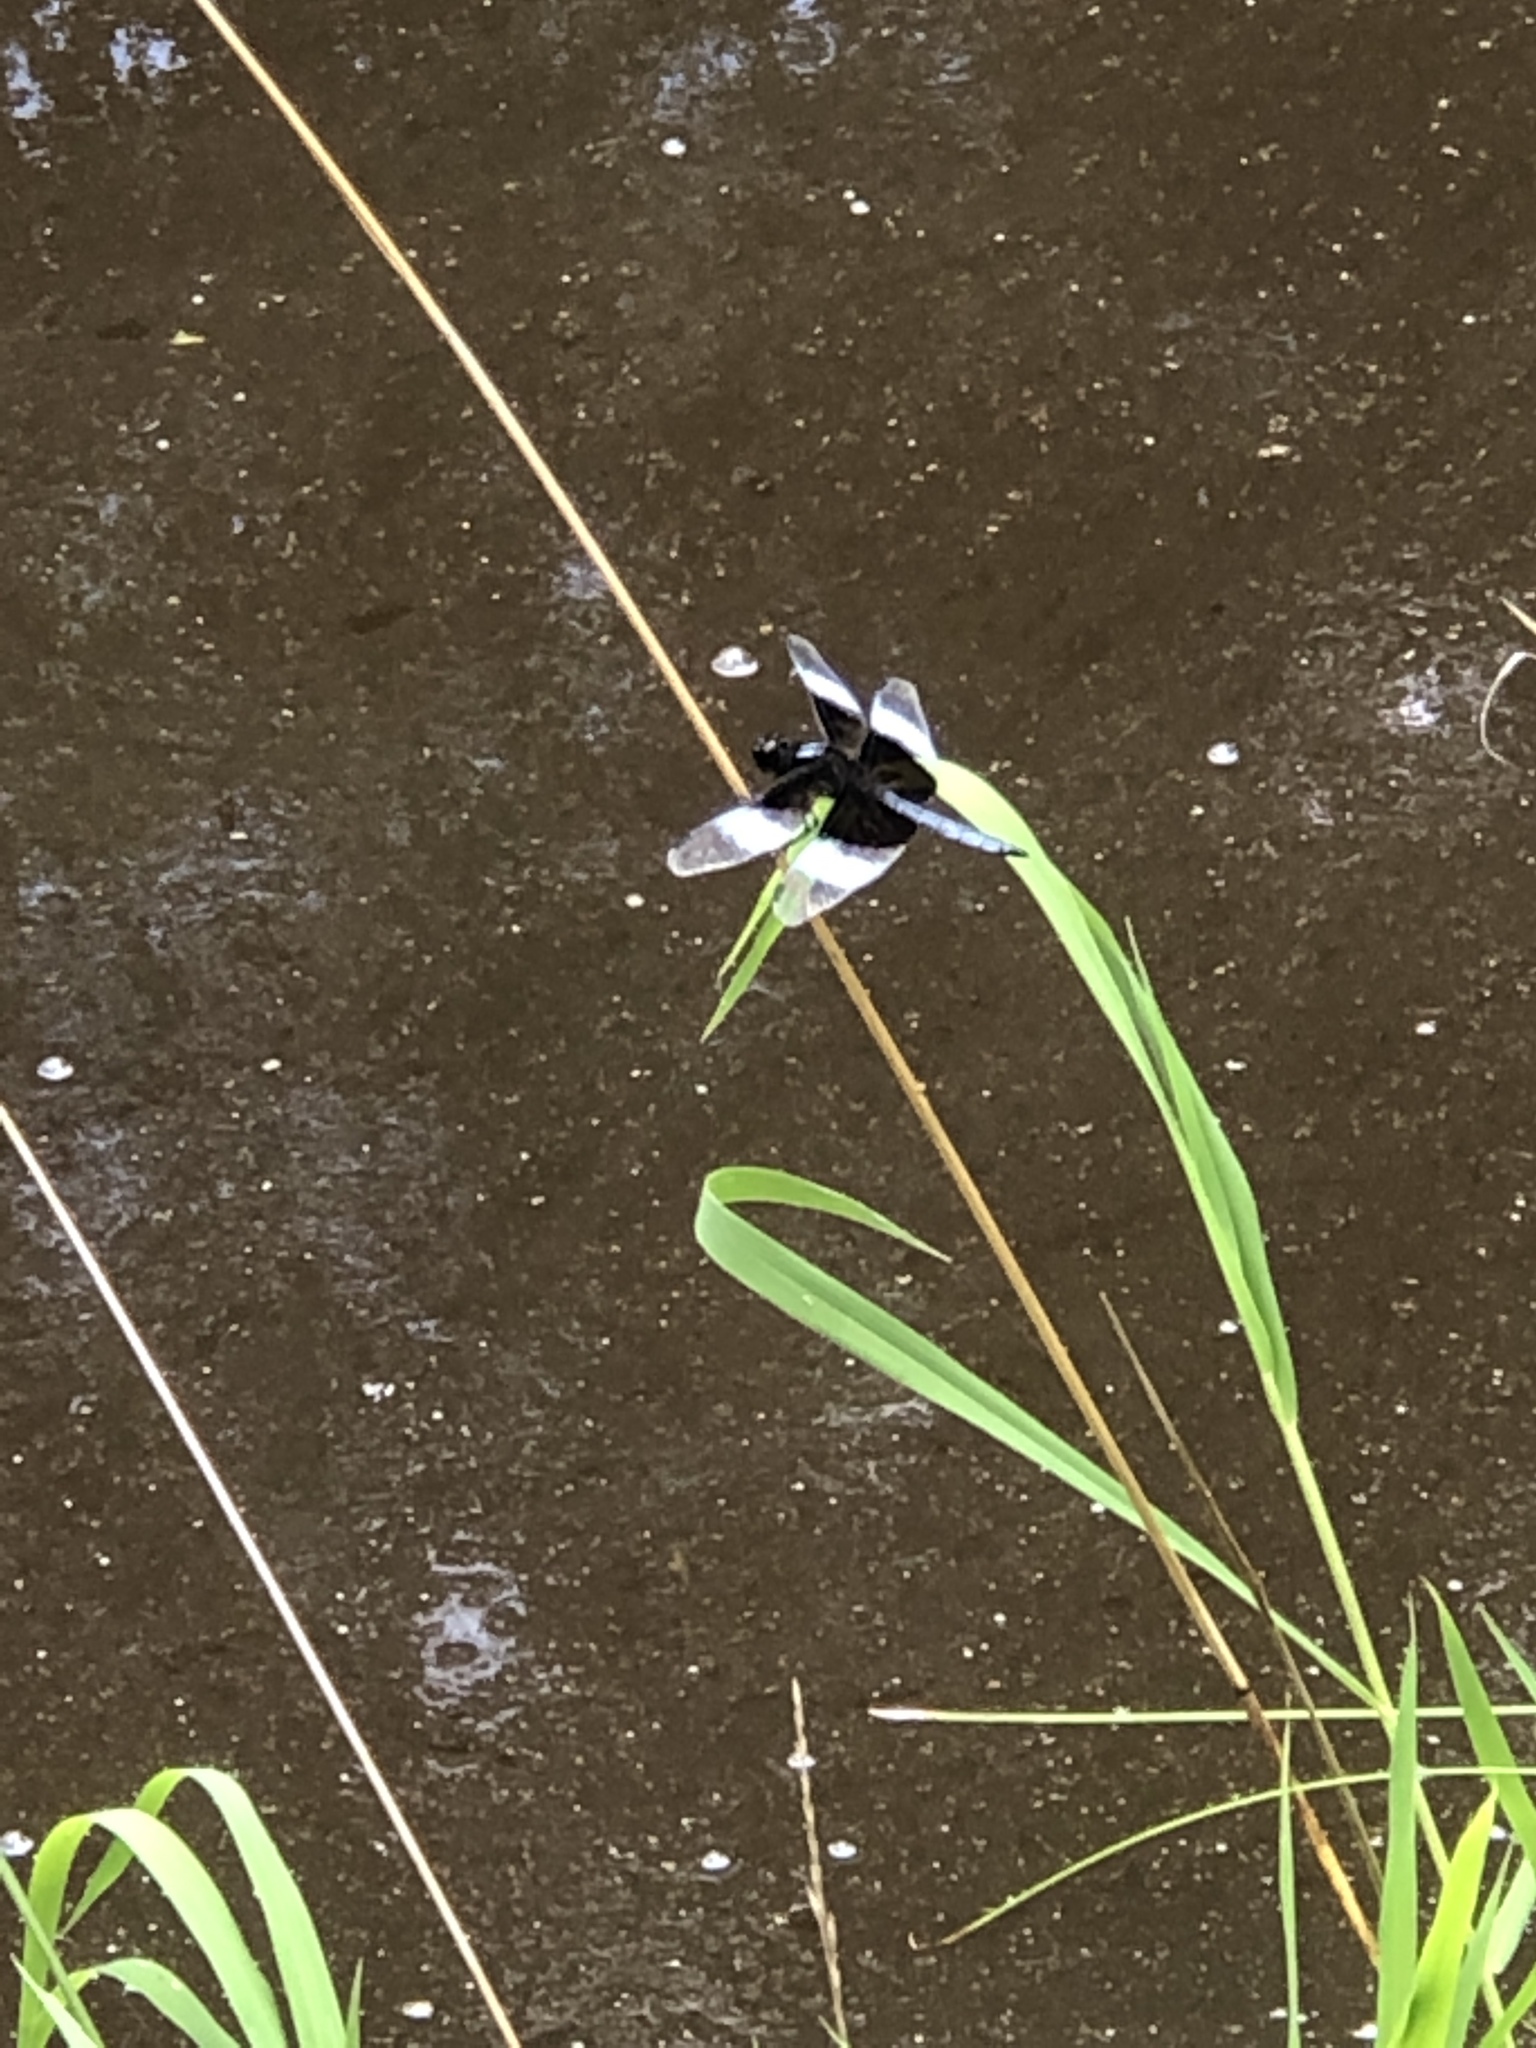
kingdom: Animalia
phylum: Arthropoda
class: Insecta
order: Odonata
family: Libellulidae
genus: Libellula
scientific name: Libellula luctuosa
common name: Widow skimmer
